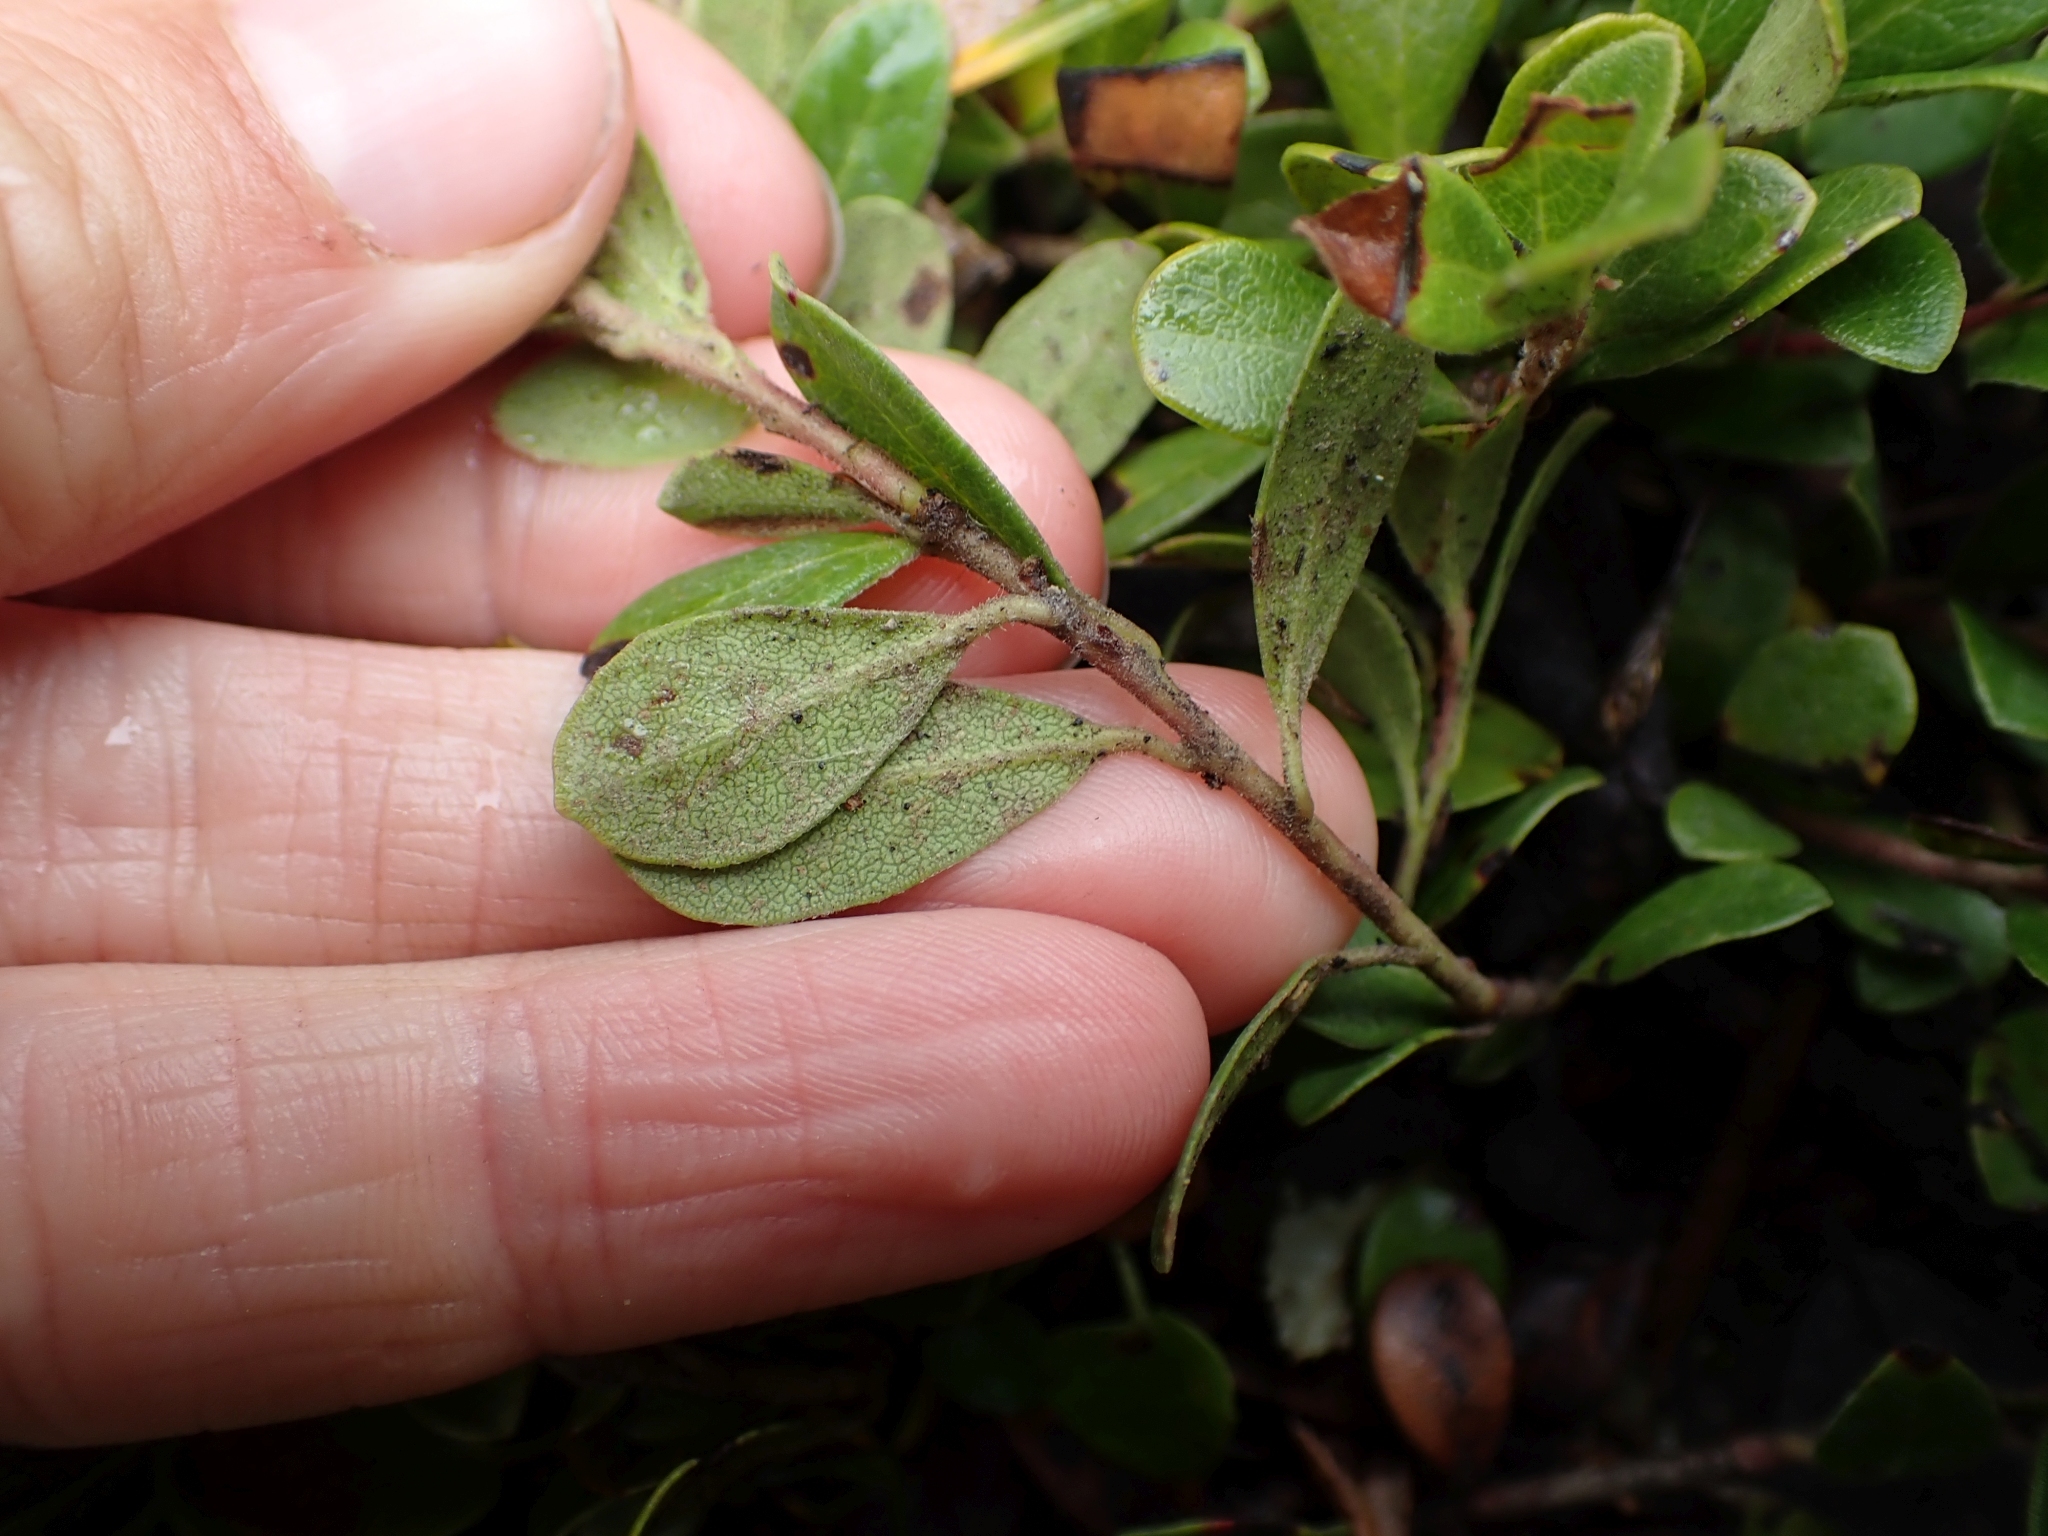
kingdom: Plantae
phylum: Tracheophyta
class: Magnoliopsida
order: Ericales
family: Ericaceae
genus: Arctostaphylos
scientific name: Arctostaphylos uva-ursi
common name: Bearberry
